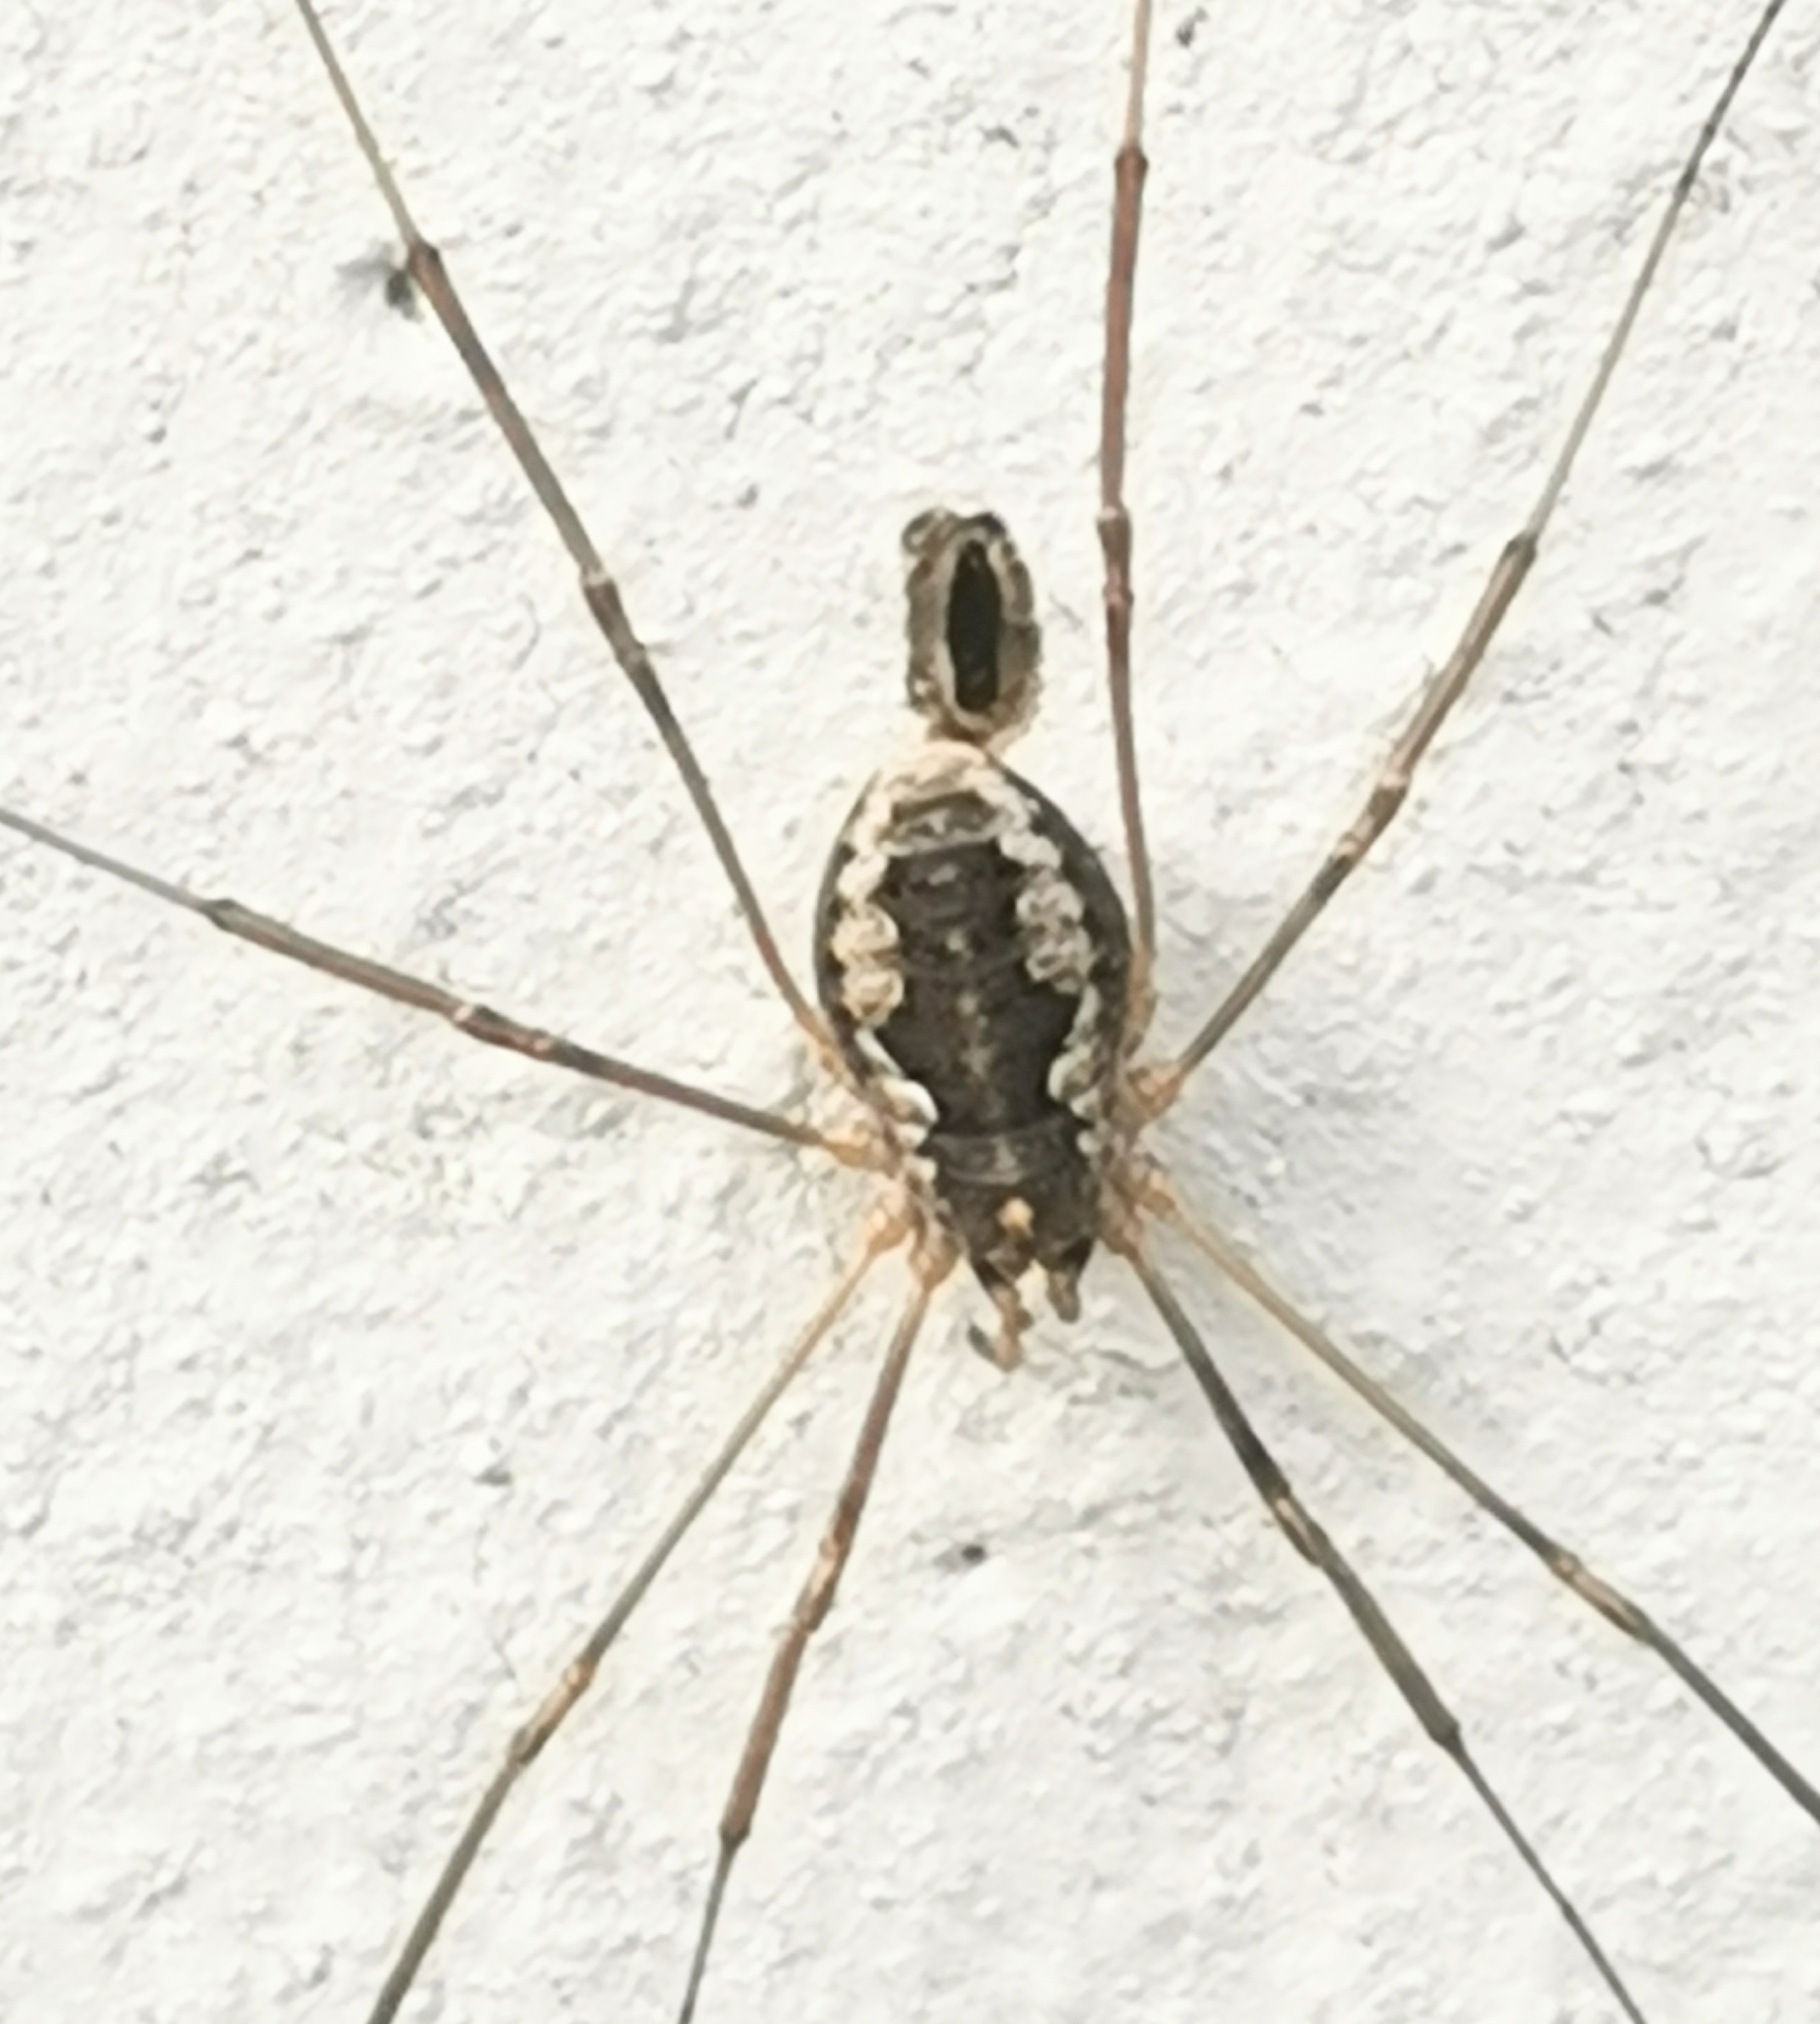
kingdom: Animalia
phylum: Arthropoda
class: Arachnida
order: Opiliones
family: Phalangiidae
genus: Phalangium
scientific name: Phalangium opilio
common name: Daddy longleg
